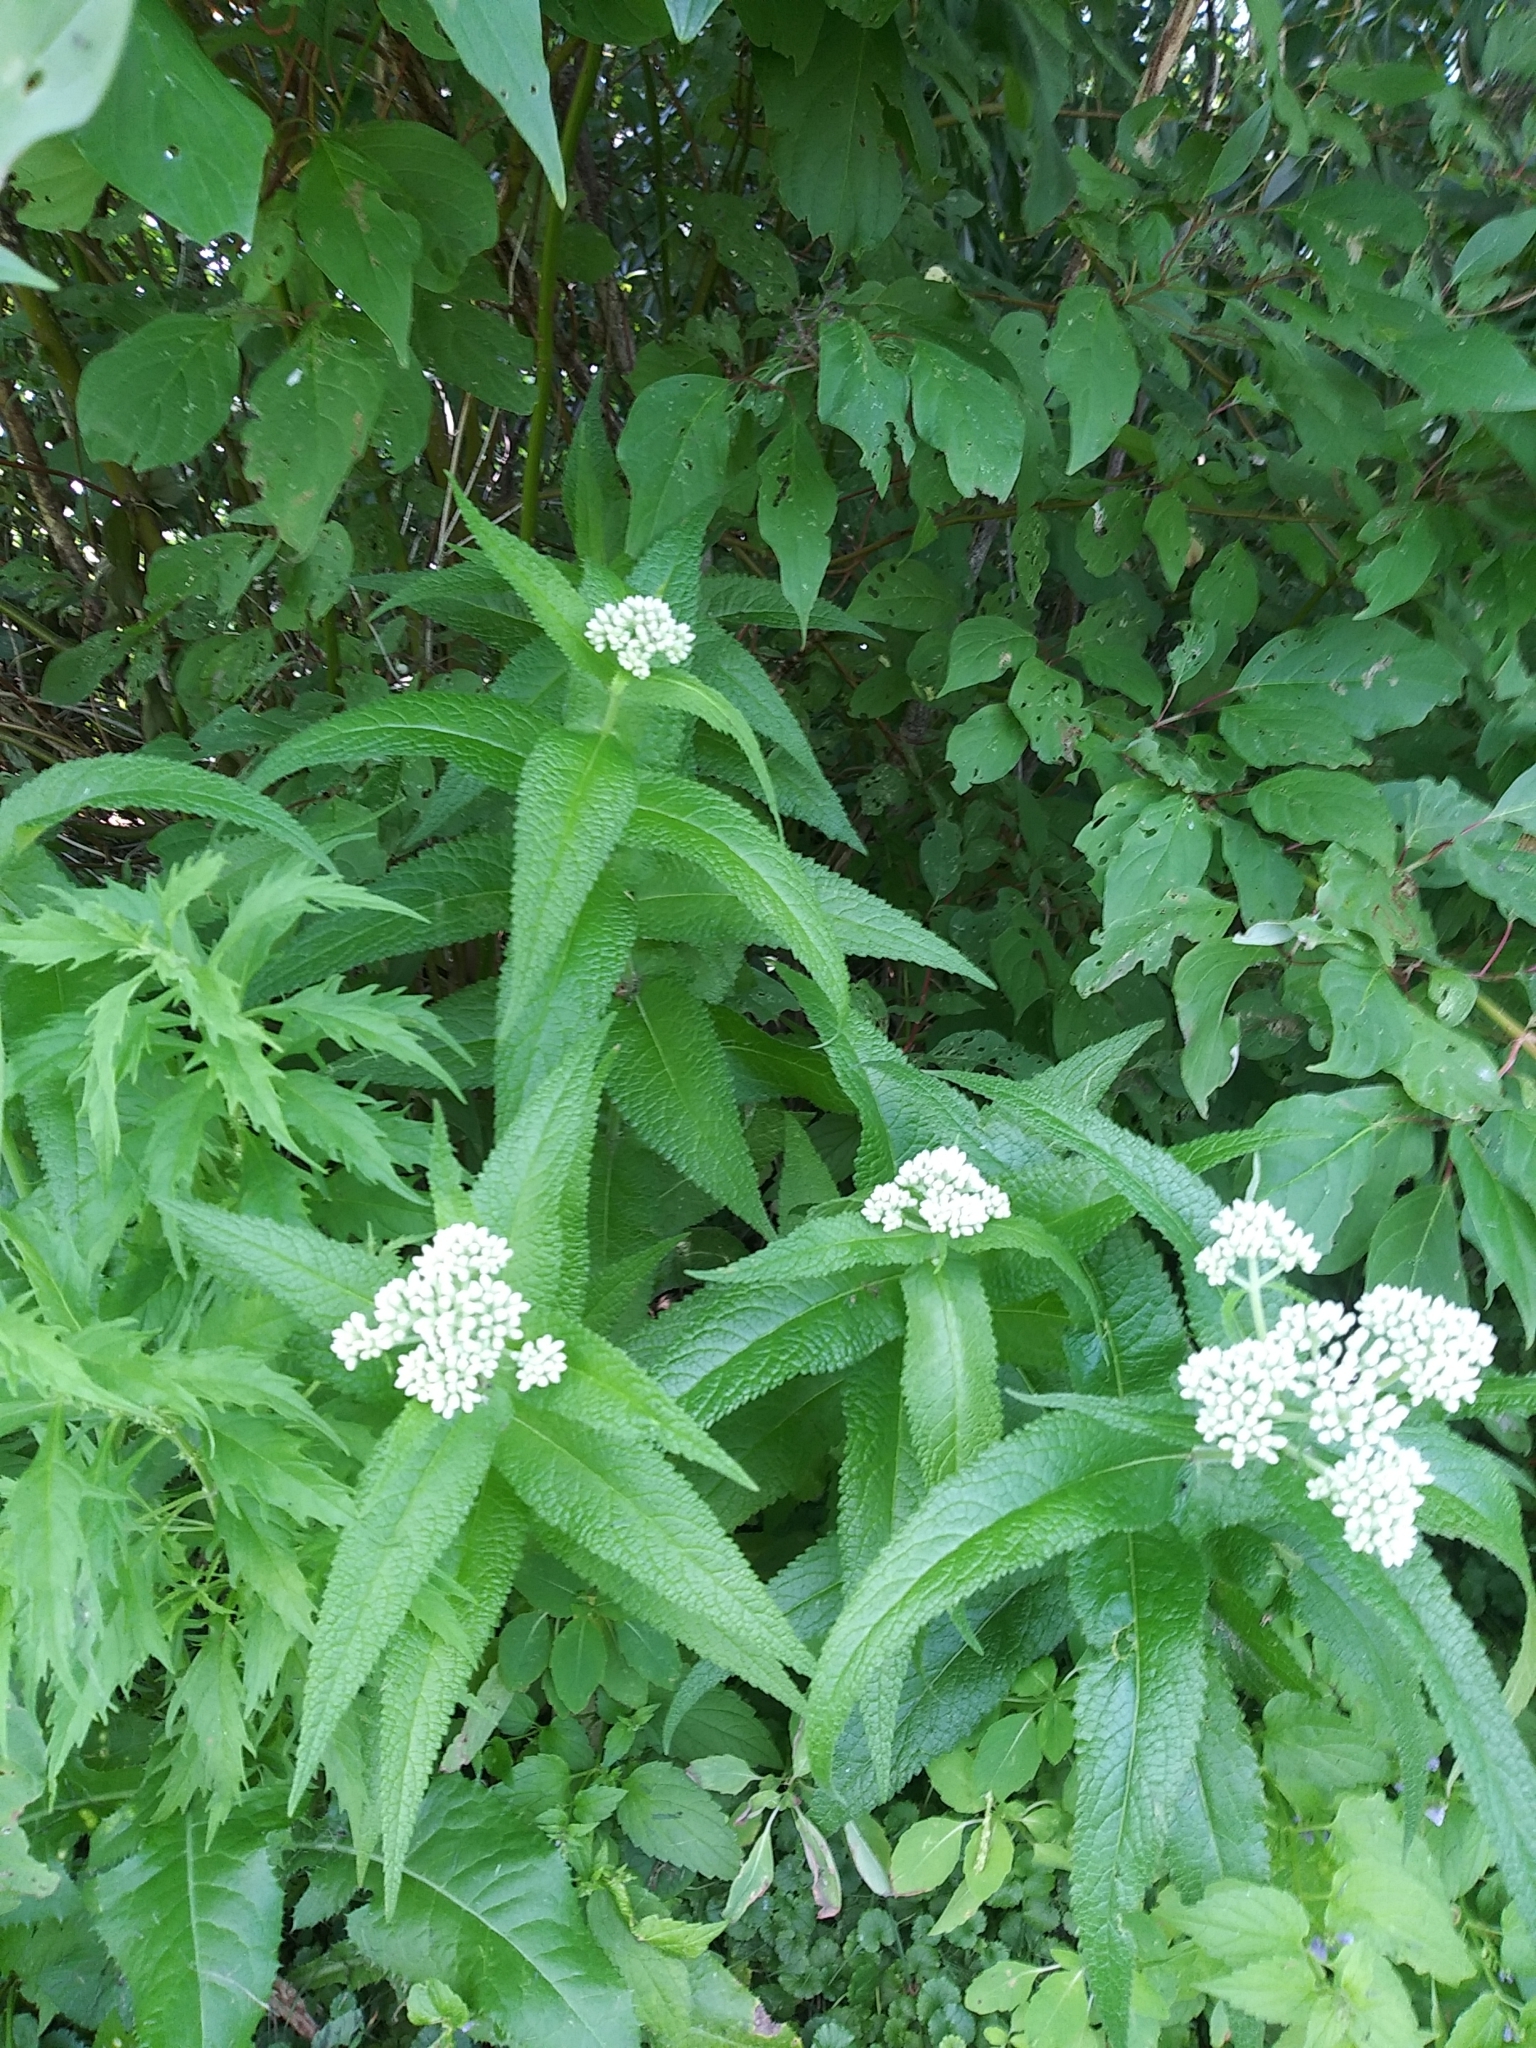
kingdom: Plantae
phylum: Tracheophyta
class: Magnoliopsida
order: Asterales
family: Asteraceae
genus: Eupatorium
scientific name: Eupatorium perfoliatum
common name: Boneset
